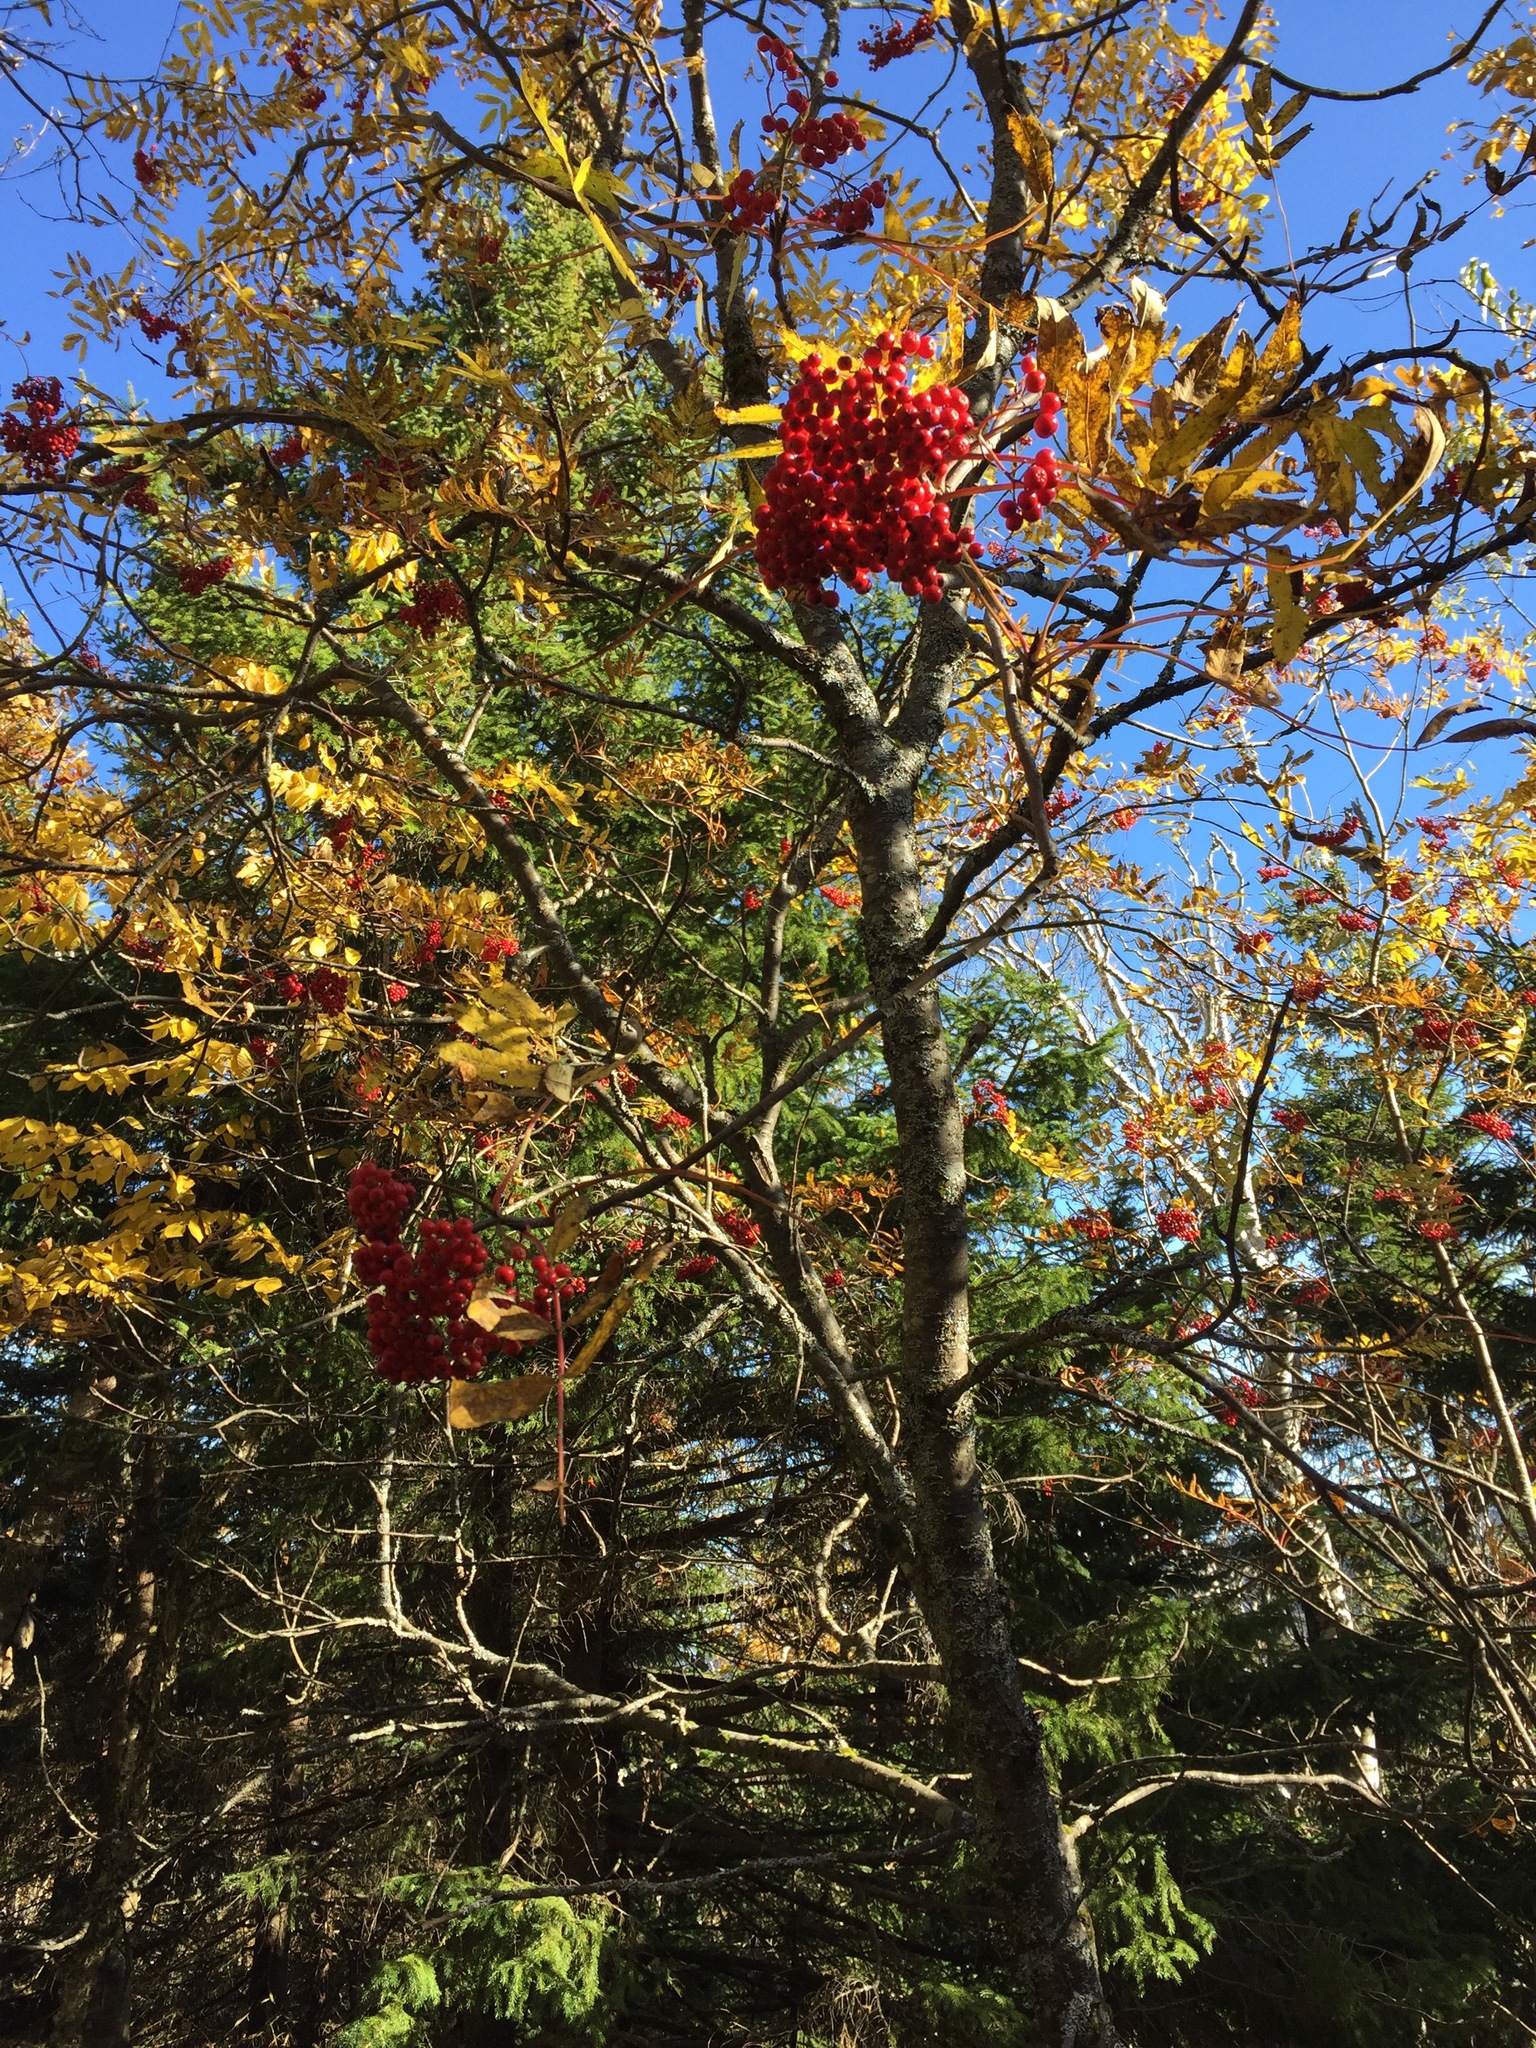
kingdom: Plantae
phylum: Tracheophyta
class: Magnoliopsida
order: Rosales
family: Rosaceae
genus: Sorbus
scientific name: Sorbus americana
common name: American mountain-ash
